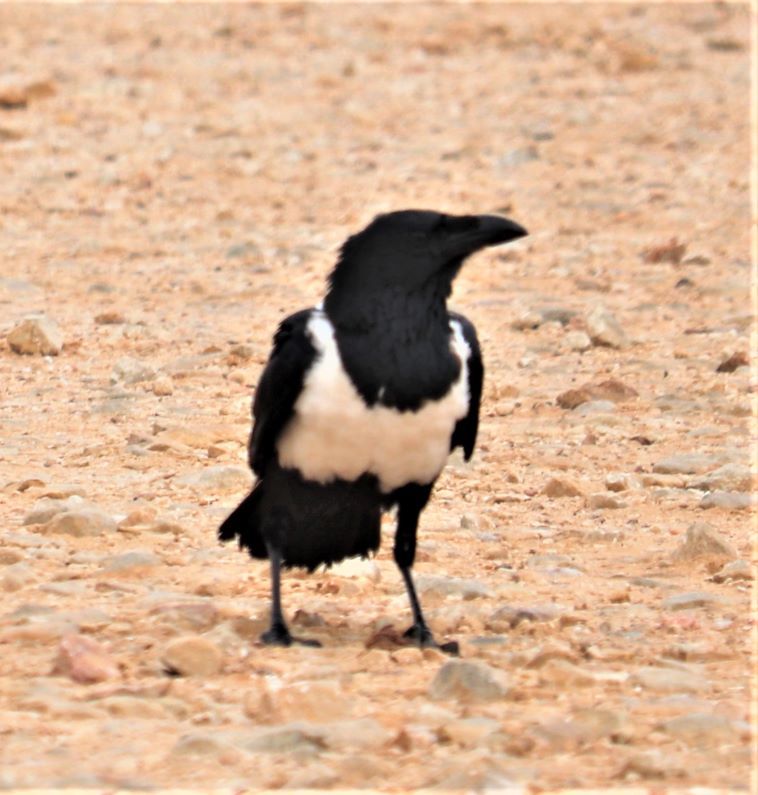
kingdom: Animalia
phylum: Chordata
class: Aves
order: Passeriformes
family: Corvidae
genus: Corvus
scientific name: Corvus albus
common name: Pied crow
